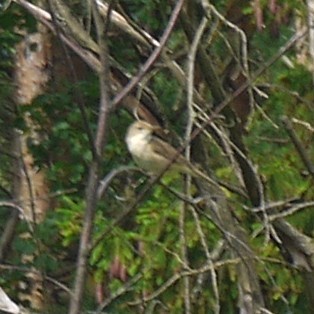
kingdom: Animalia
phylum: Chordata
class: Aves
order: Passeriformes
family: Acrocephalidae
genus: Acrocephalus
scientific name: Acrocephalus dumetorum
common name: Blyth's reed warbler
